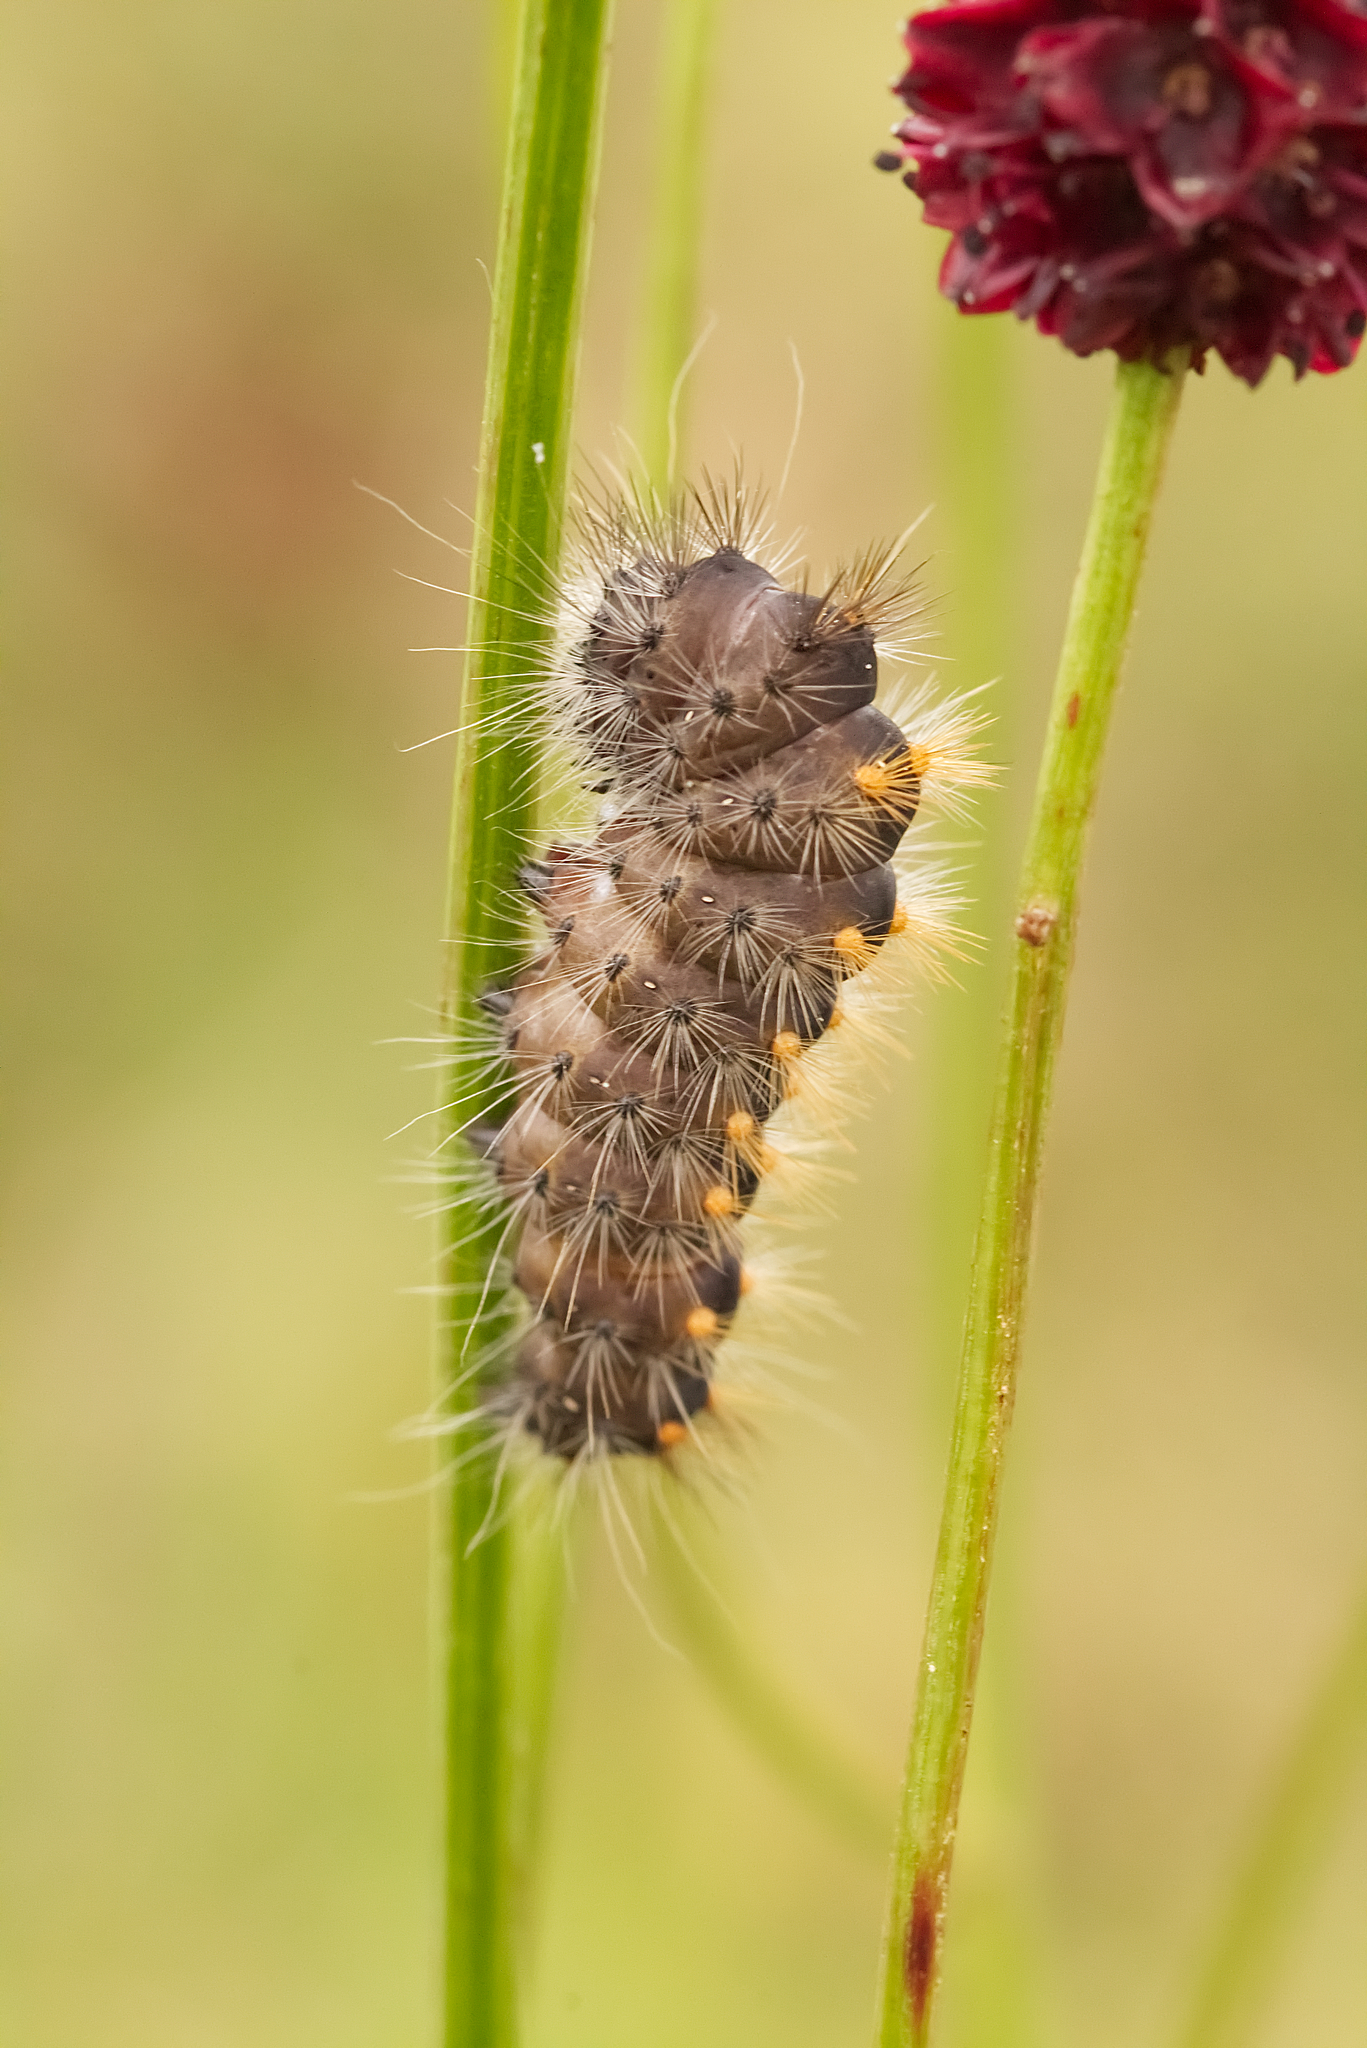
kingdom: Animalia
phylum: Arthropoda
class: Insecta
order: Lepidoptera
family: Noctuidae
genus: Acronicta
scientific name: Acronicta auricoma
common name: Scarce dagger
